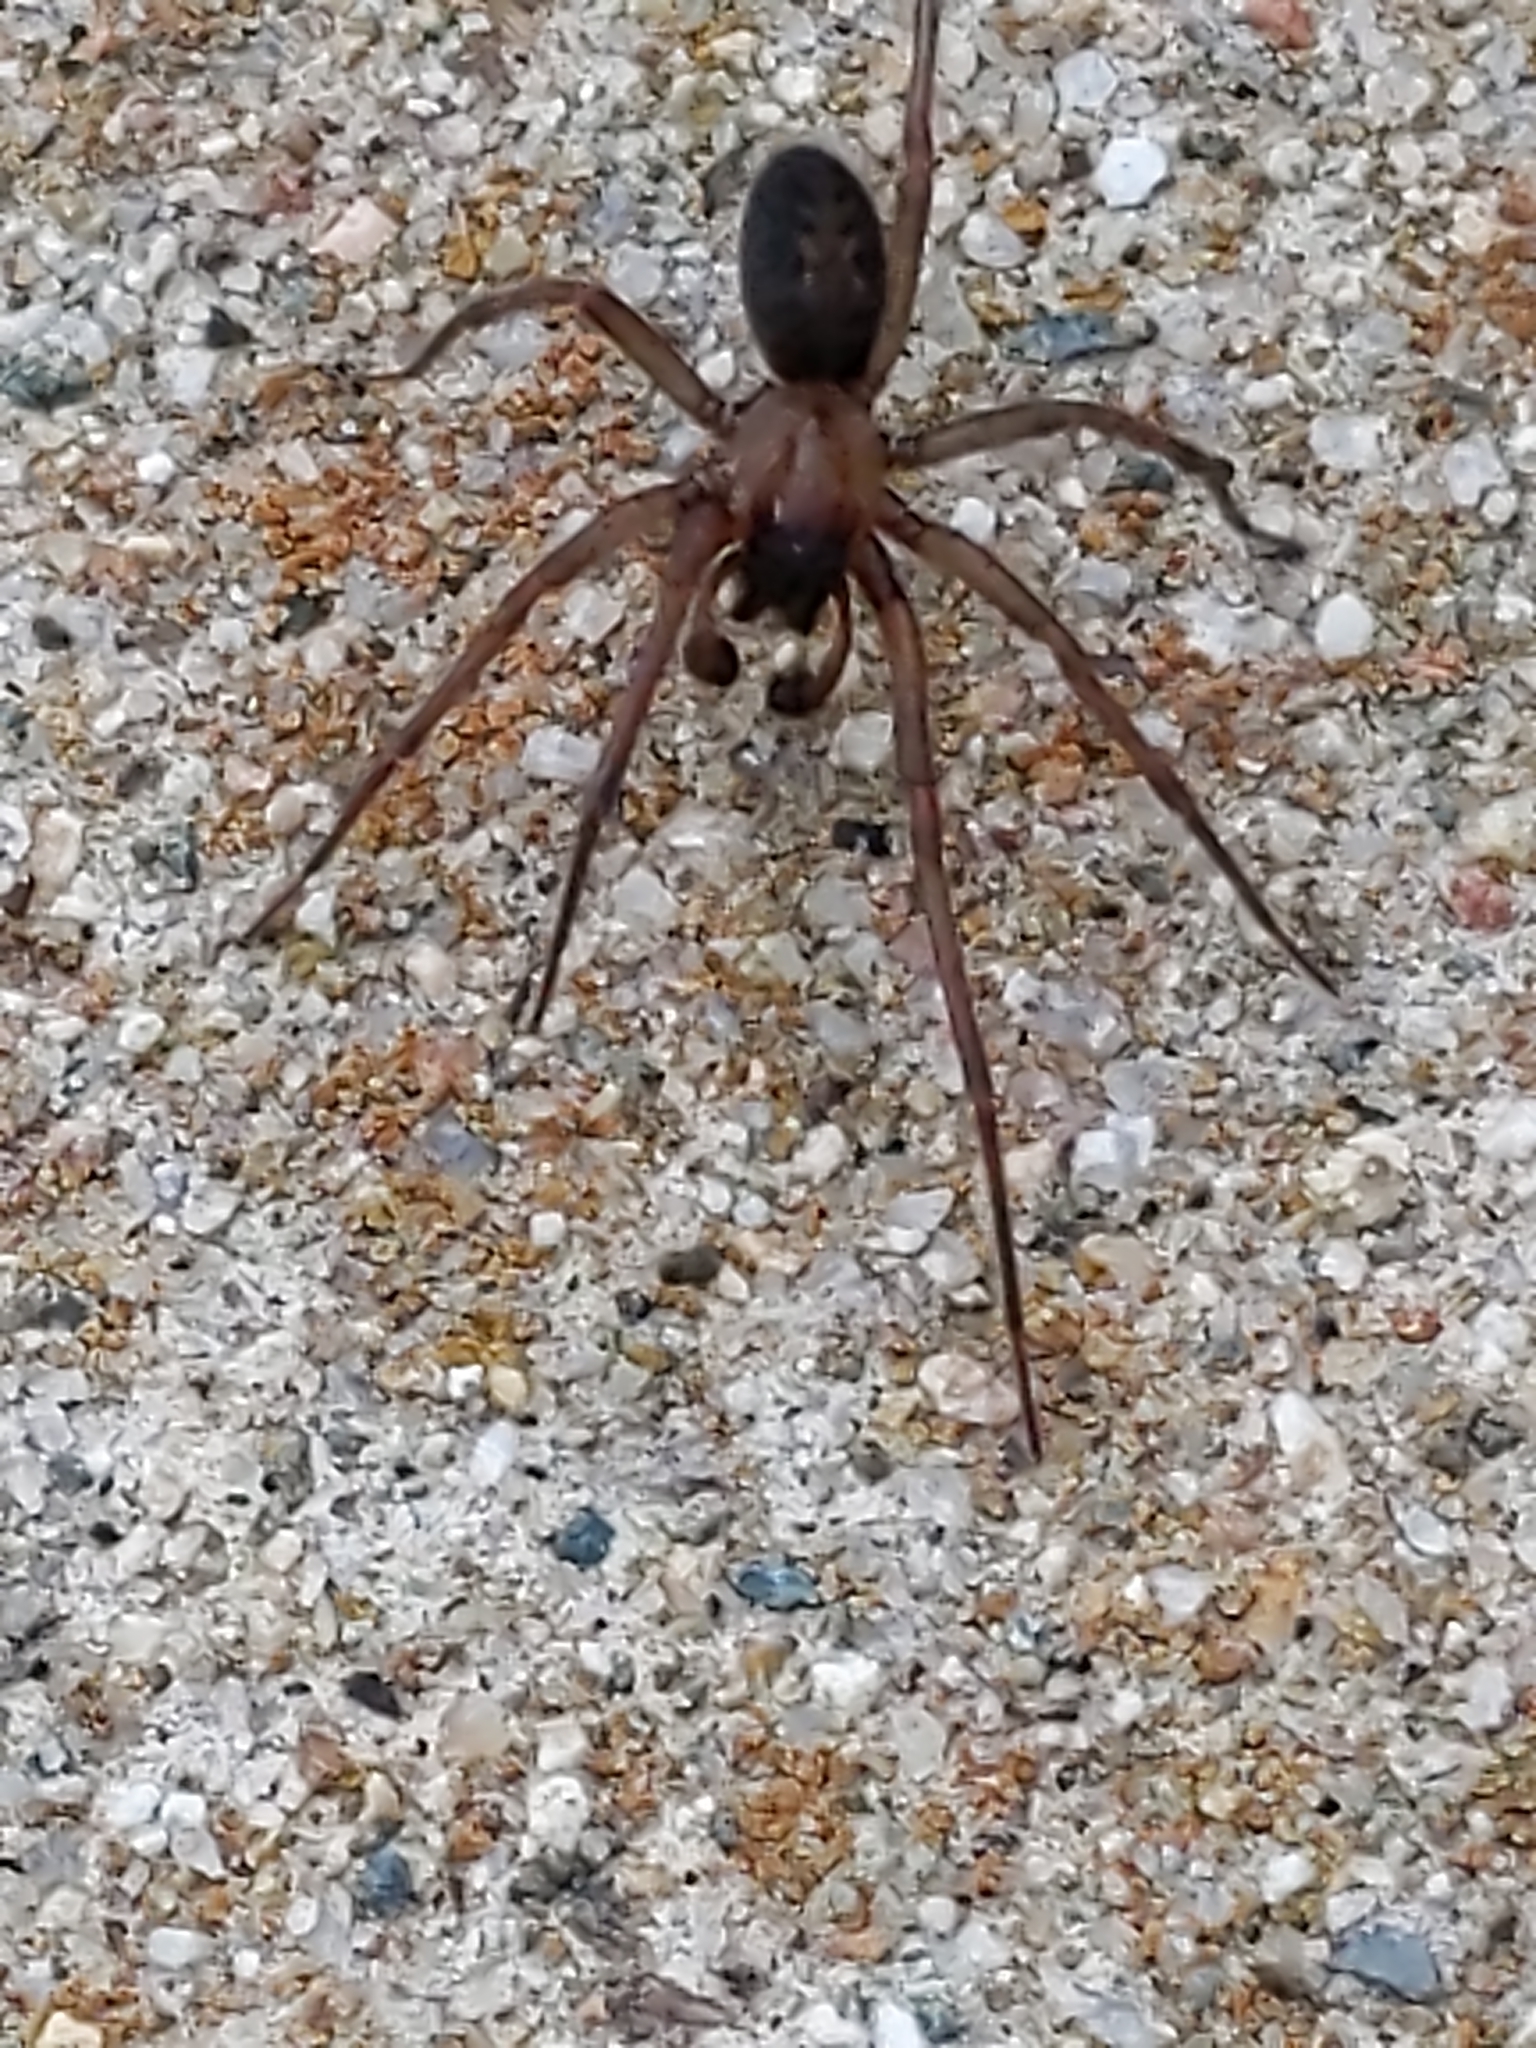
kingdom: Animalia
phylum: Arthropoda
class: Arachnida
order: Araneae
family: Desidae
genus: Metaltella
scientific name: Metaltella simoni
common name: Cribellate spider
